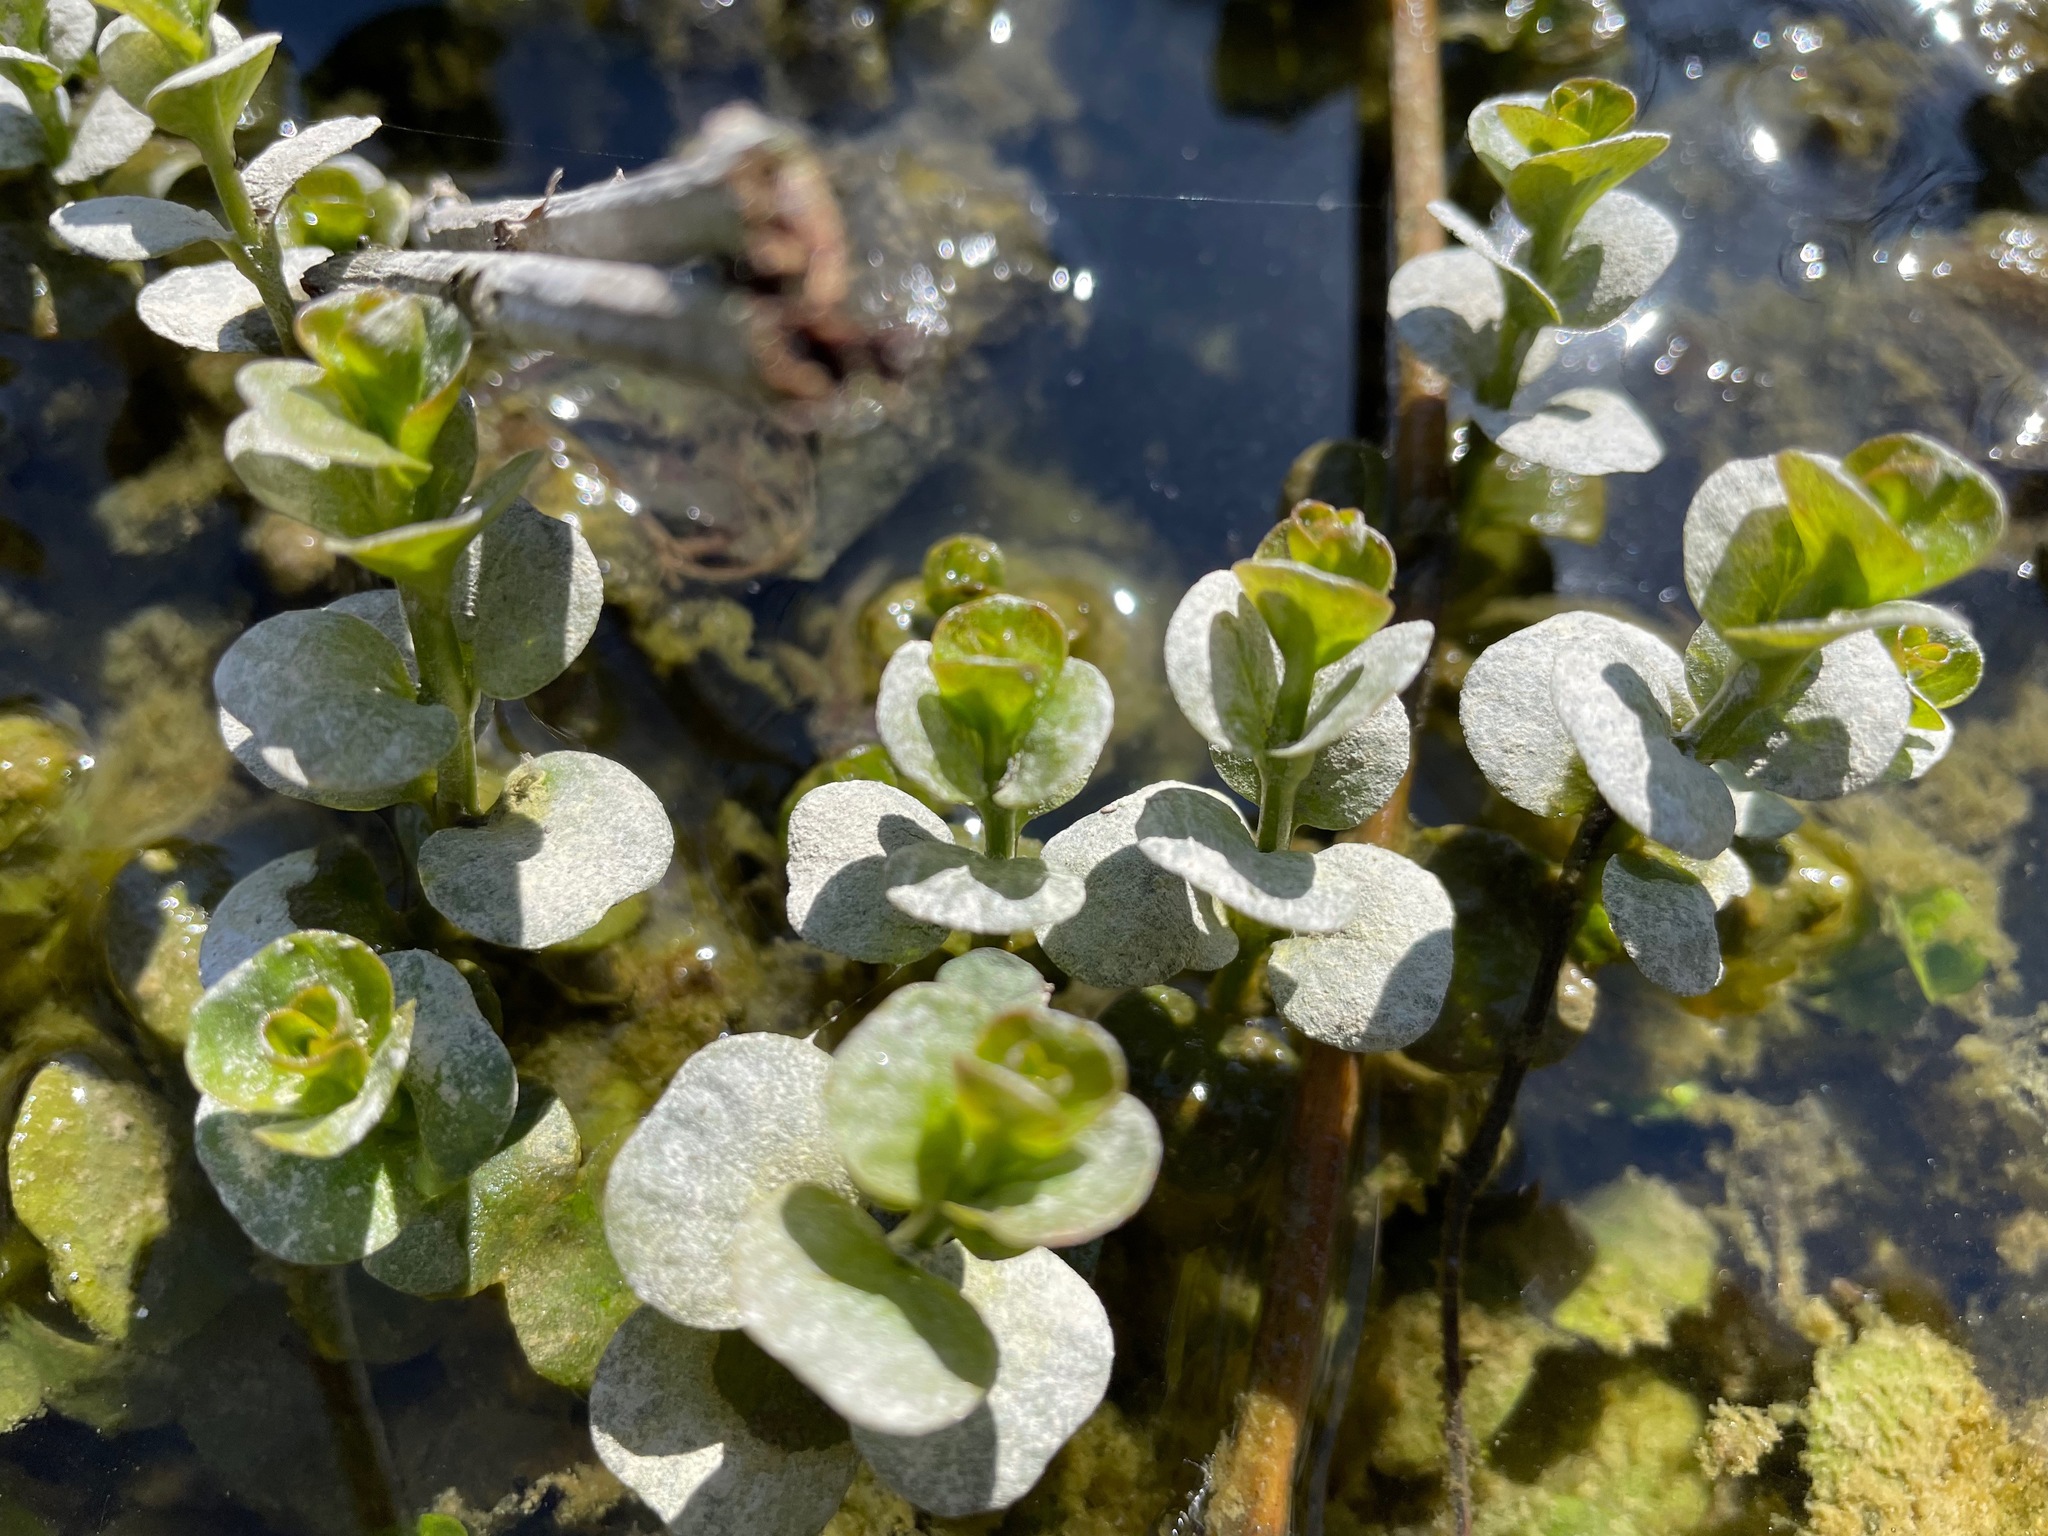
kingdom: Plantae
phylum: Tracheophyta
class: Magnoliopsida
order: Ericales
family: Primulaceae
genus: Lysimachia
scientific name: Lysimachia nummularia
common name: Moneywort
